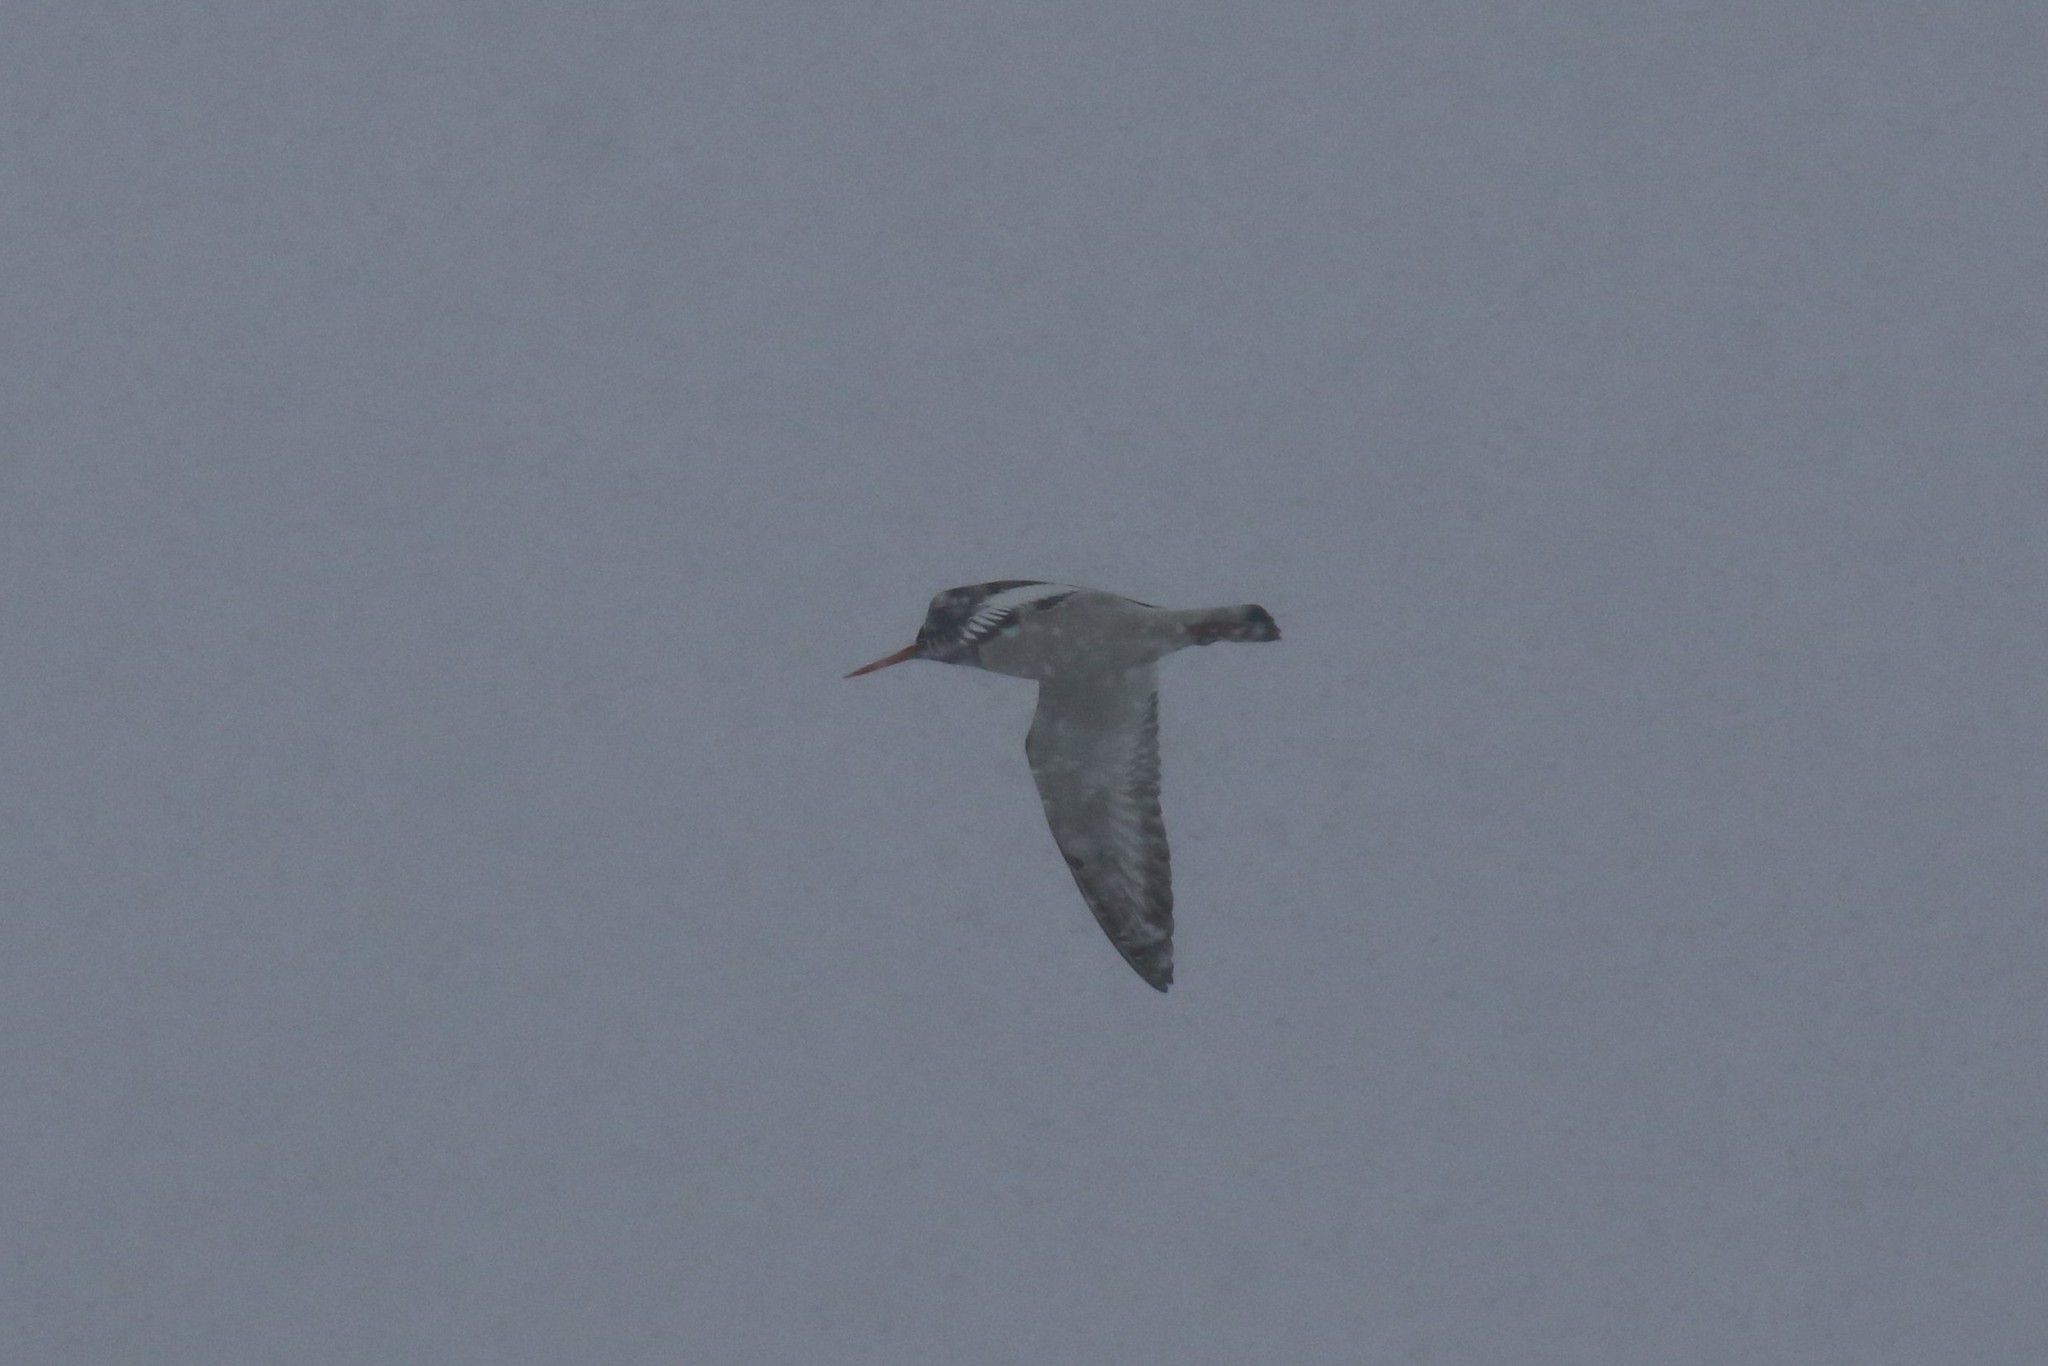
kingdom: Animalia
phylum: Chordata
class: Aves
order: Charadriiformes
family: Haematopodidae
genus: Haematopus
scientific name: Haematopus ostralegus
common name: Eurasian oystercatcher
